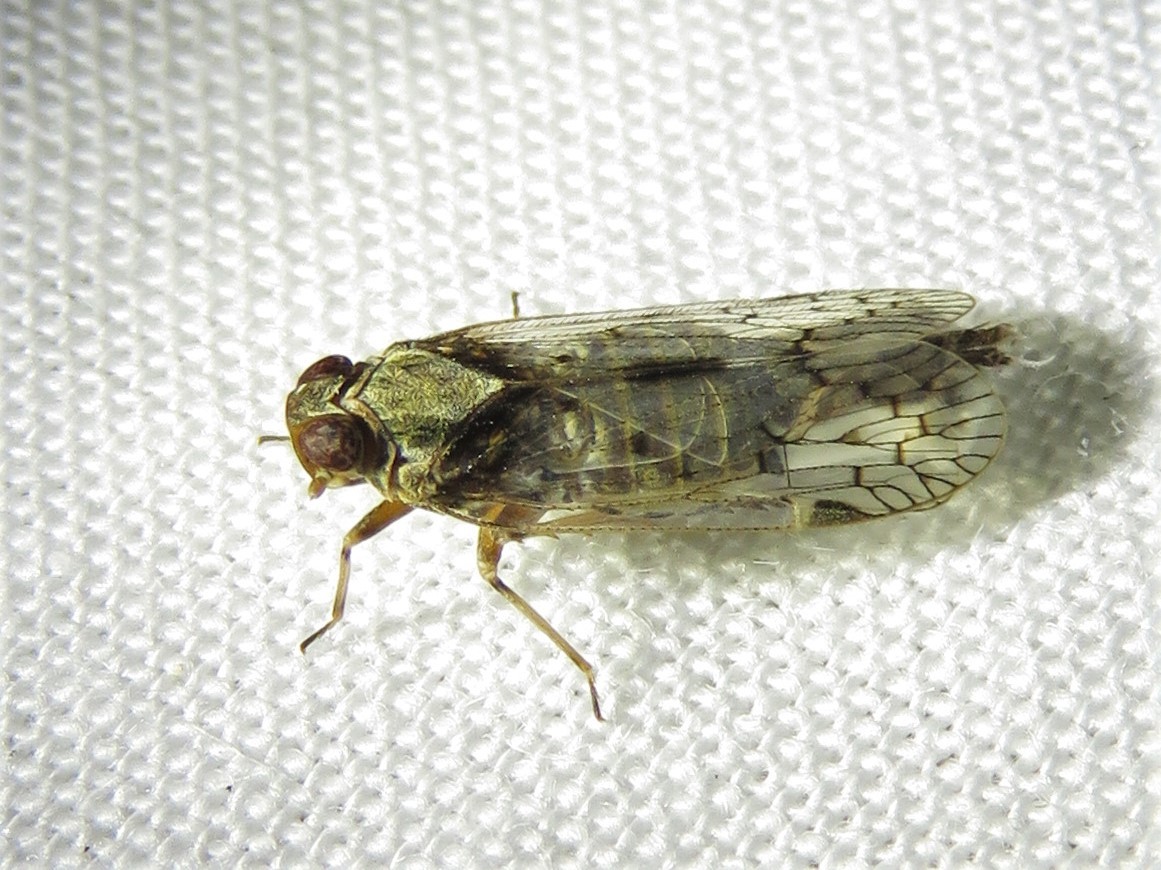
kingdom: Animalia
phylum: Arthropoda
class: Insecta
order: Hemiptera
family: Cixiidae
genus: Melanoliarus
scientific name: Melanoliarus aridus
